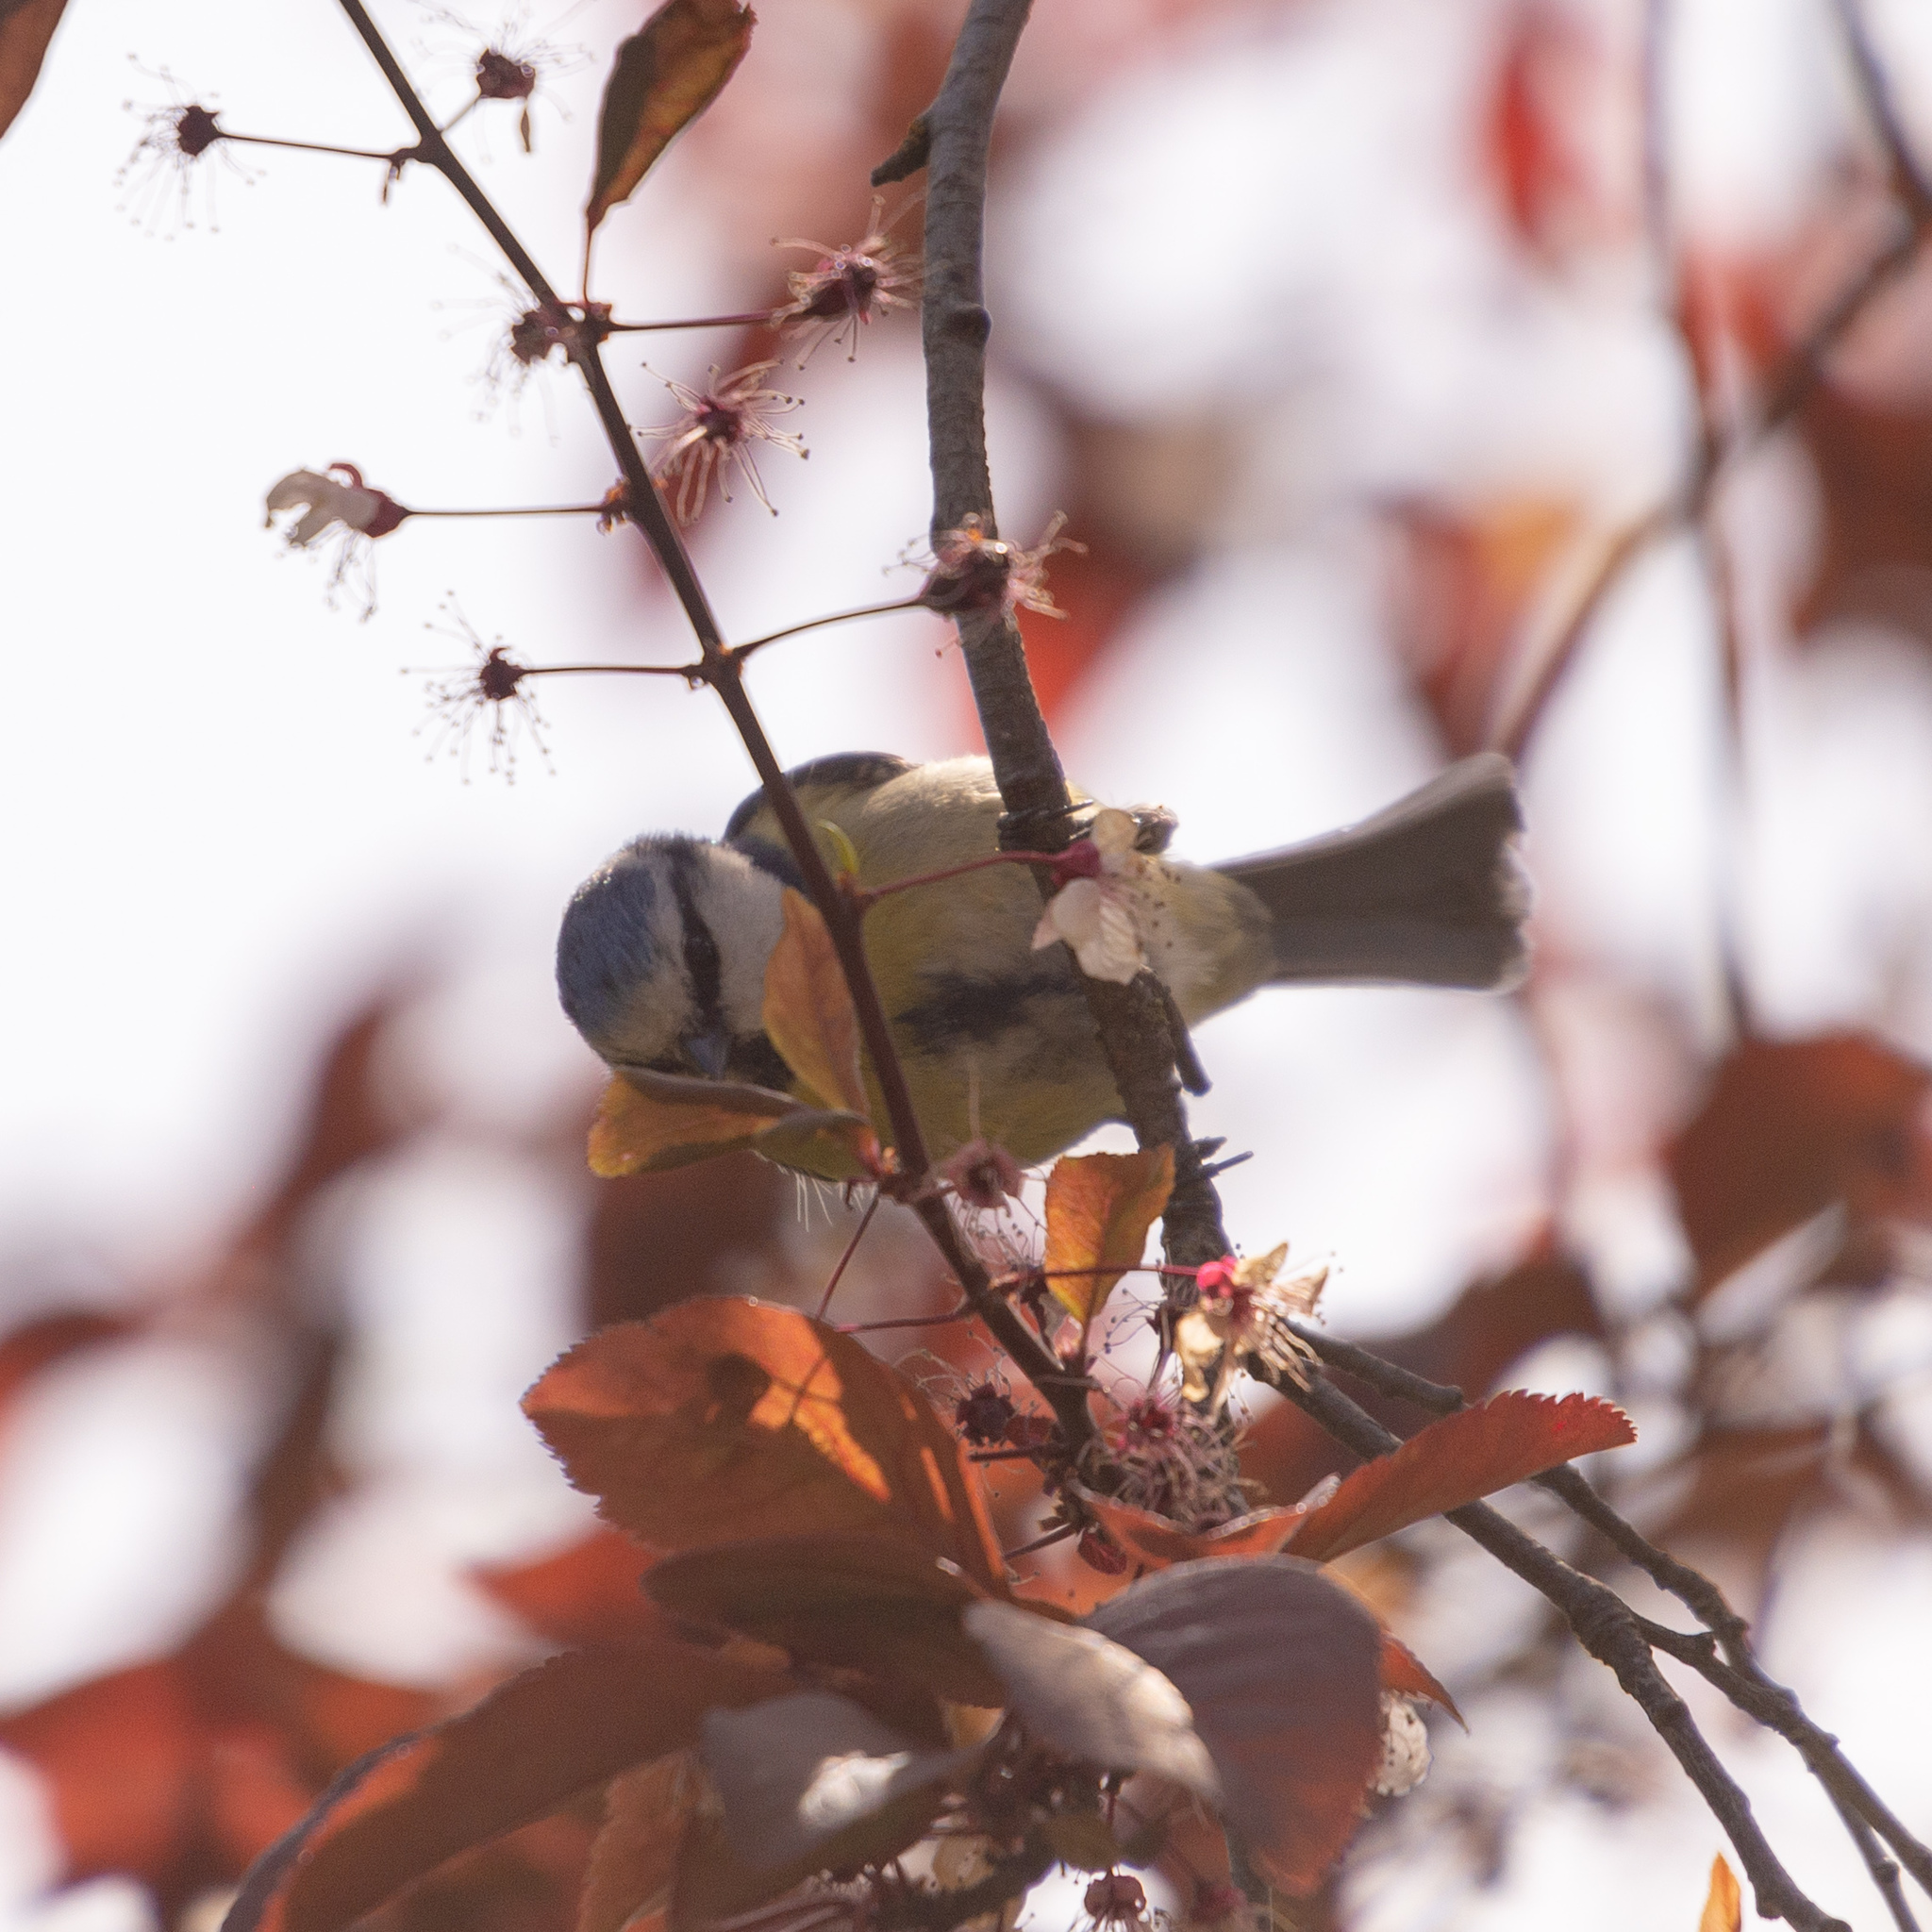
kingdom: Animalia
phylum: Chordata
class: Aves
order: Passeriformes
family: Paridae
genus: Cyanistes
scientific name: Cyanistes caeruleus
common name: Eurasian blue tit
